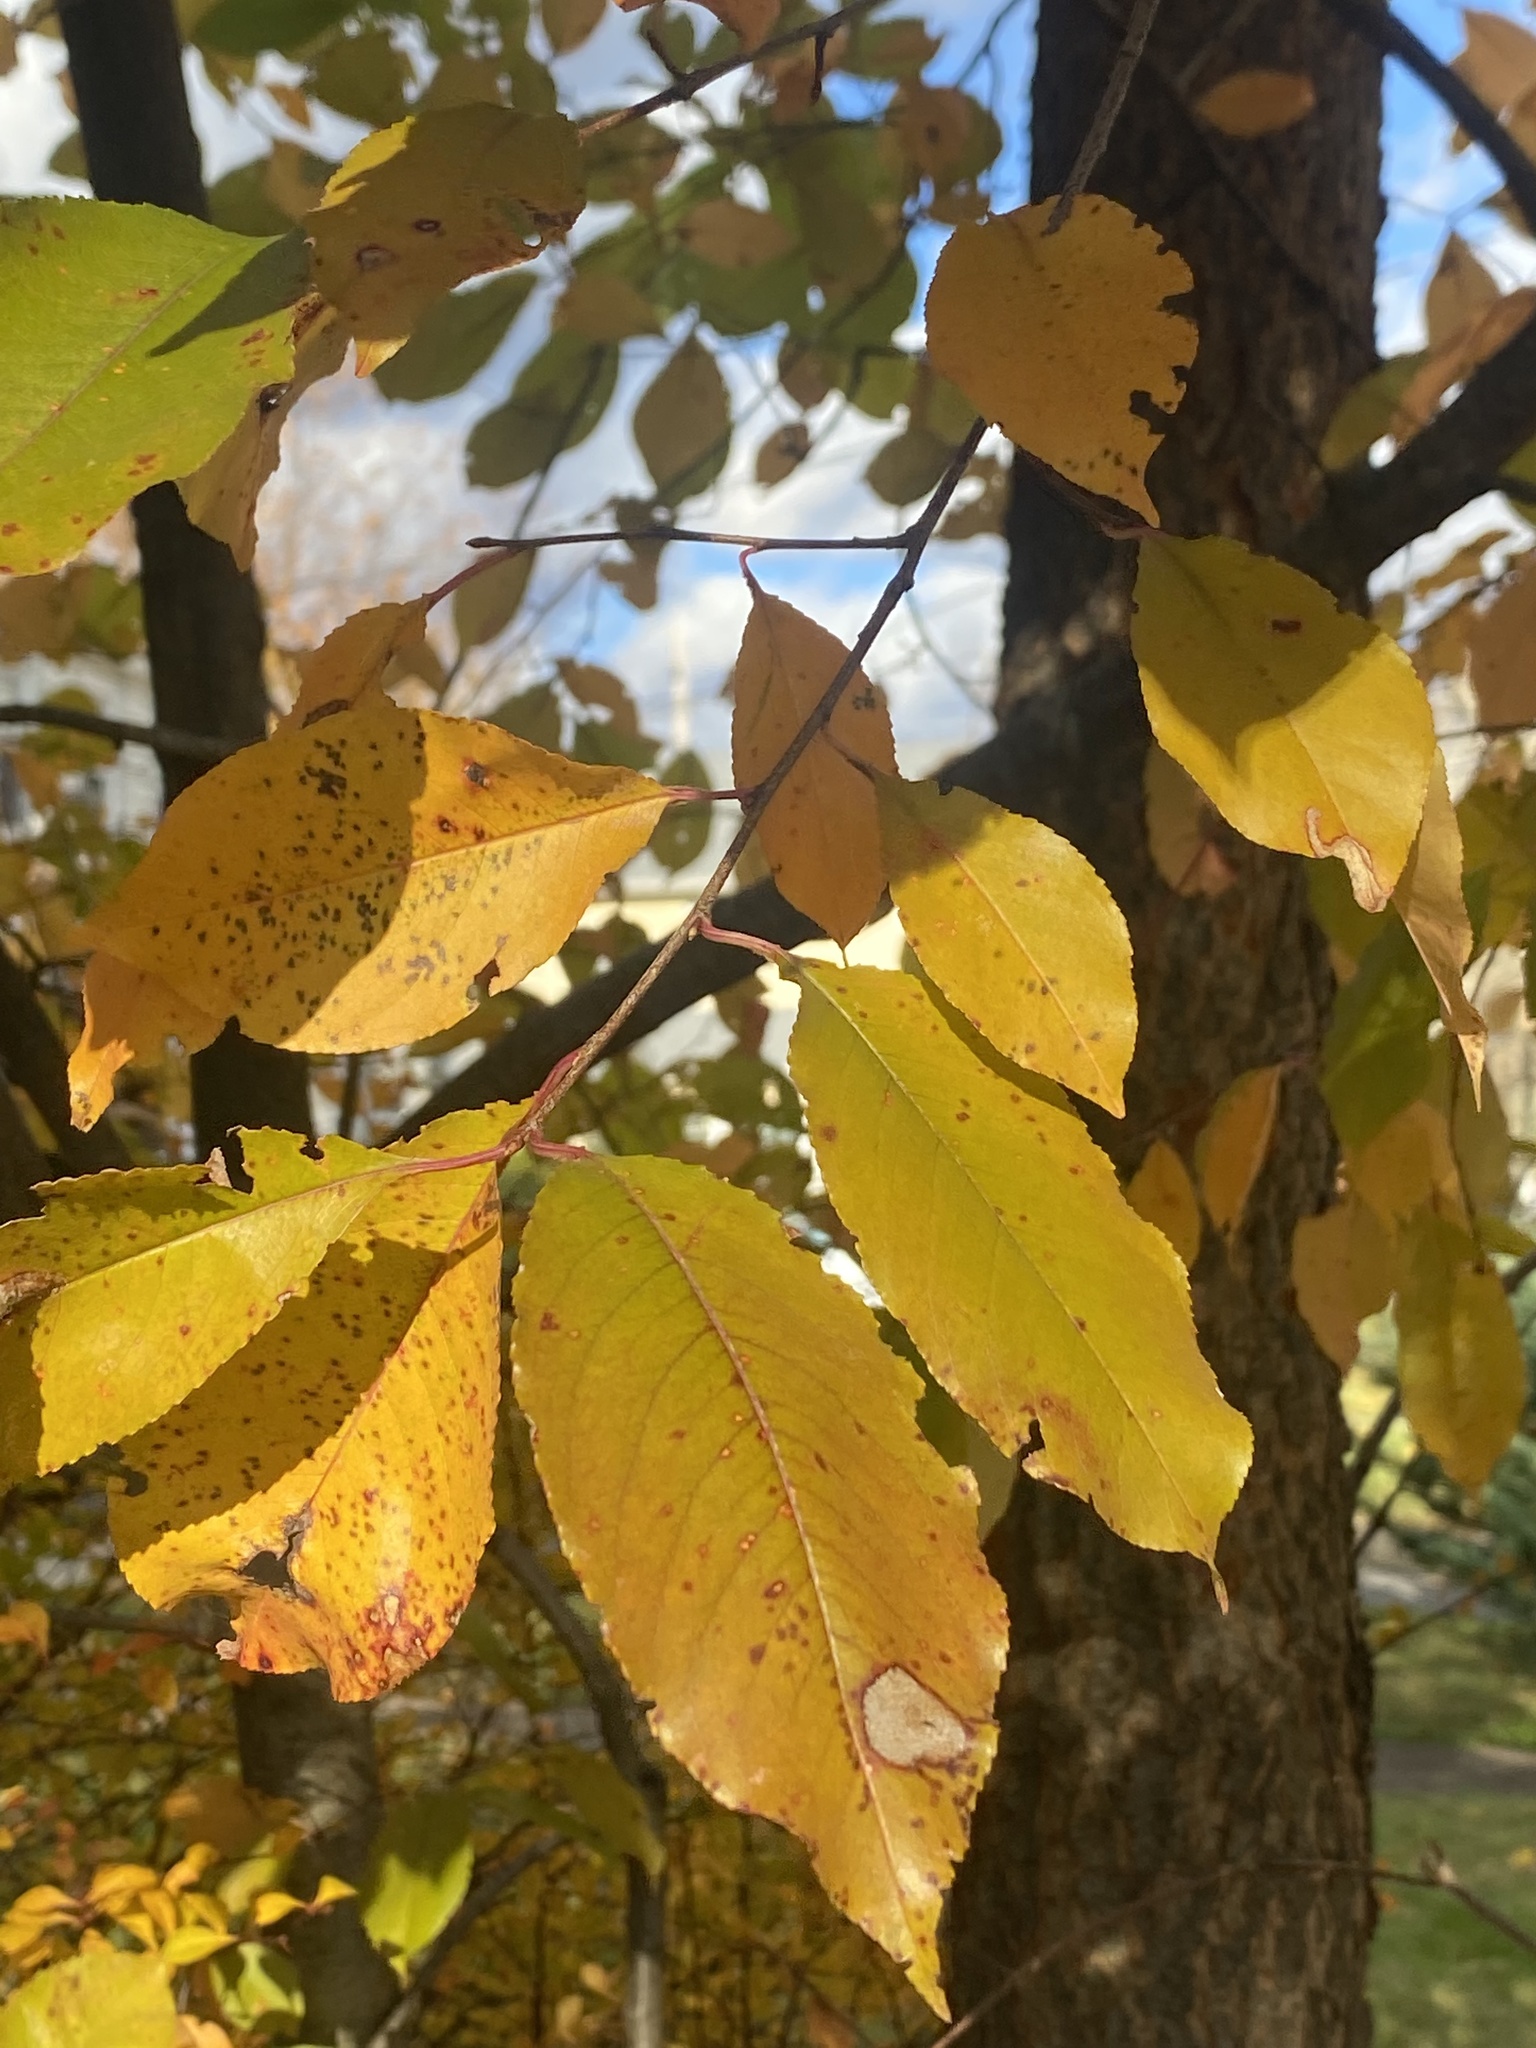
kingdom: Plantae
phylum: Tracheophyta
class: Magnoliopsida
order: Rosales
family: Rosaceae
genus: Prunus
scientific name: Prunus serotina
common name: Black cherry
